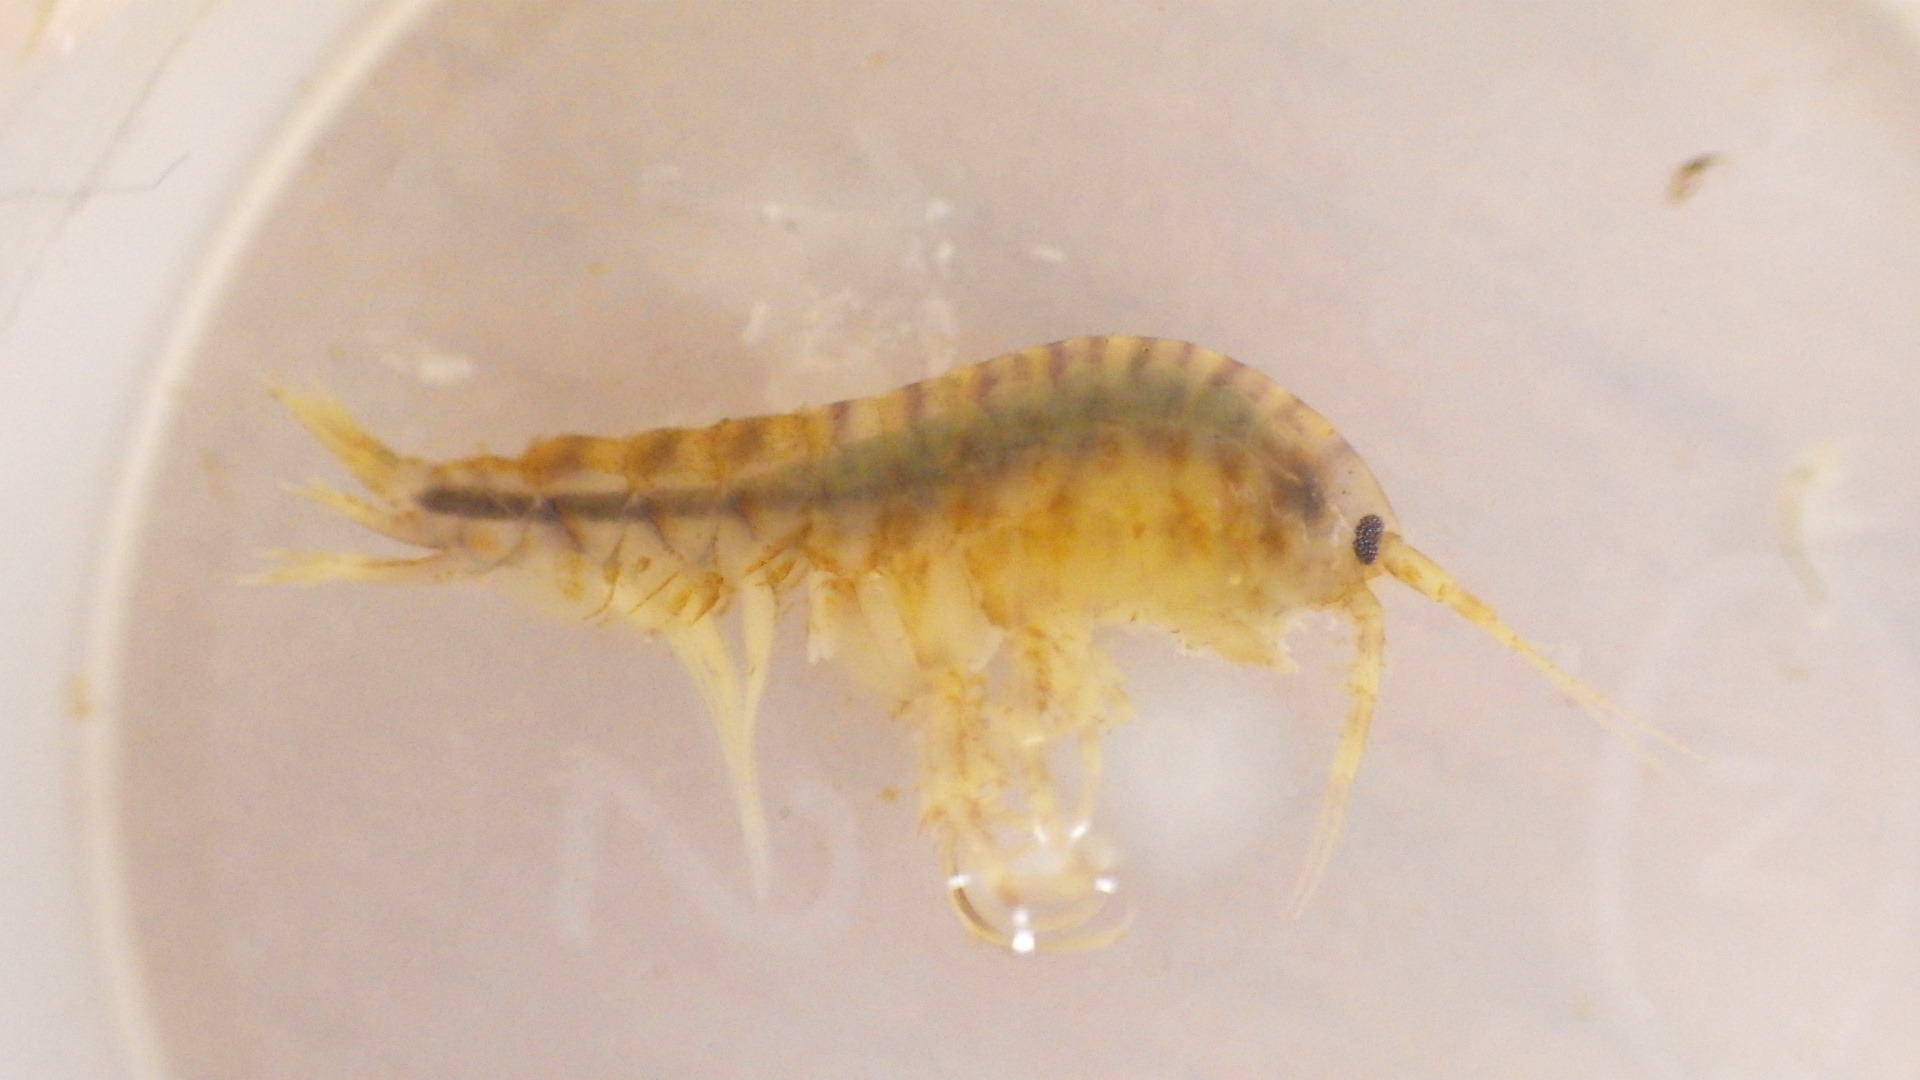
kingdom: Animalia
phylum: Arthropoda
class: Malacostraca
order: Amphipoda
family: Gammaridae
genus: Gammarus
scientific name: Gammarus fasciatus
